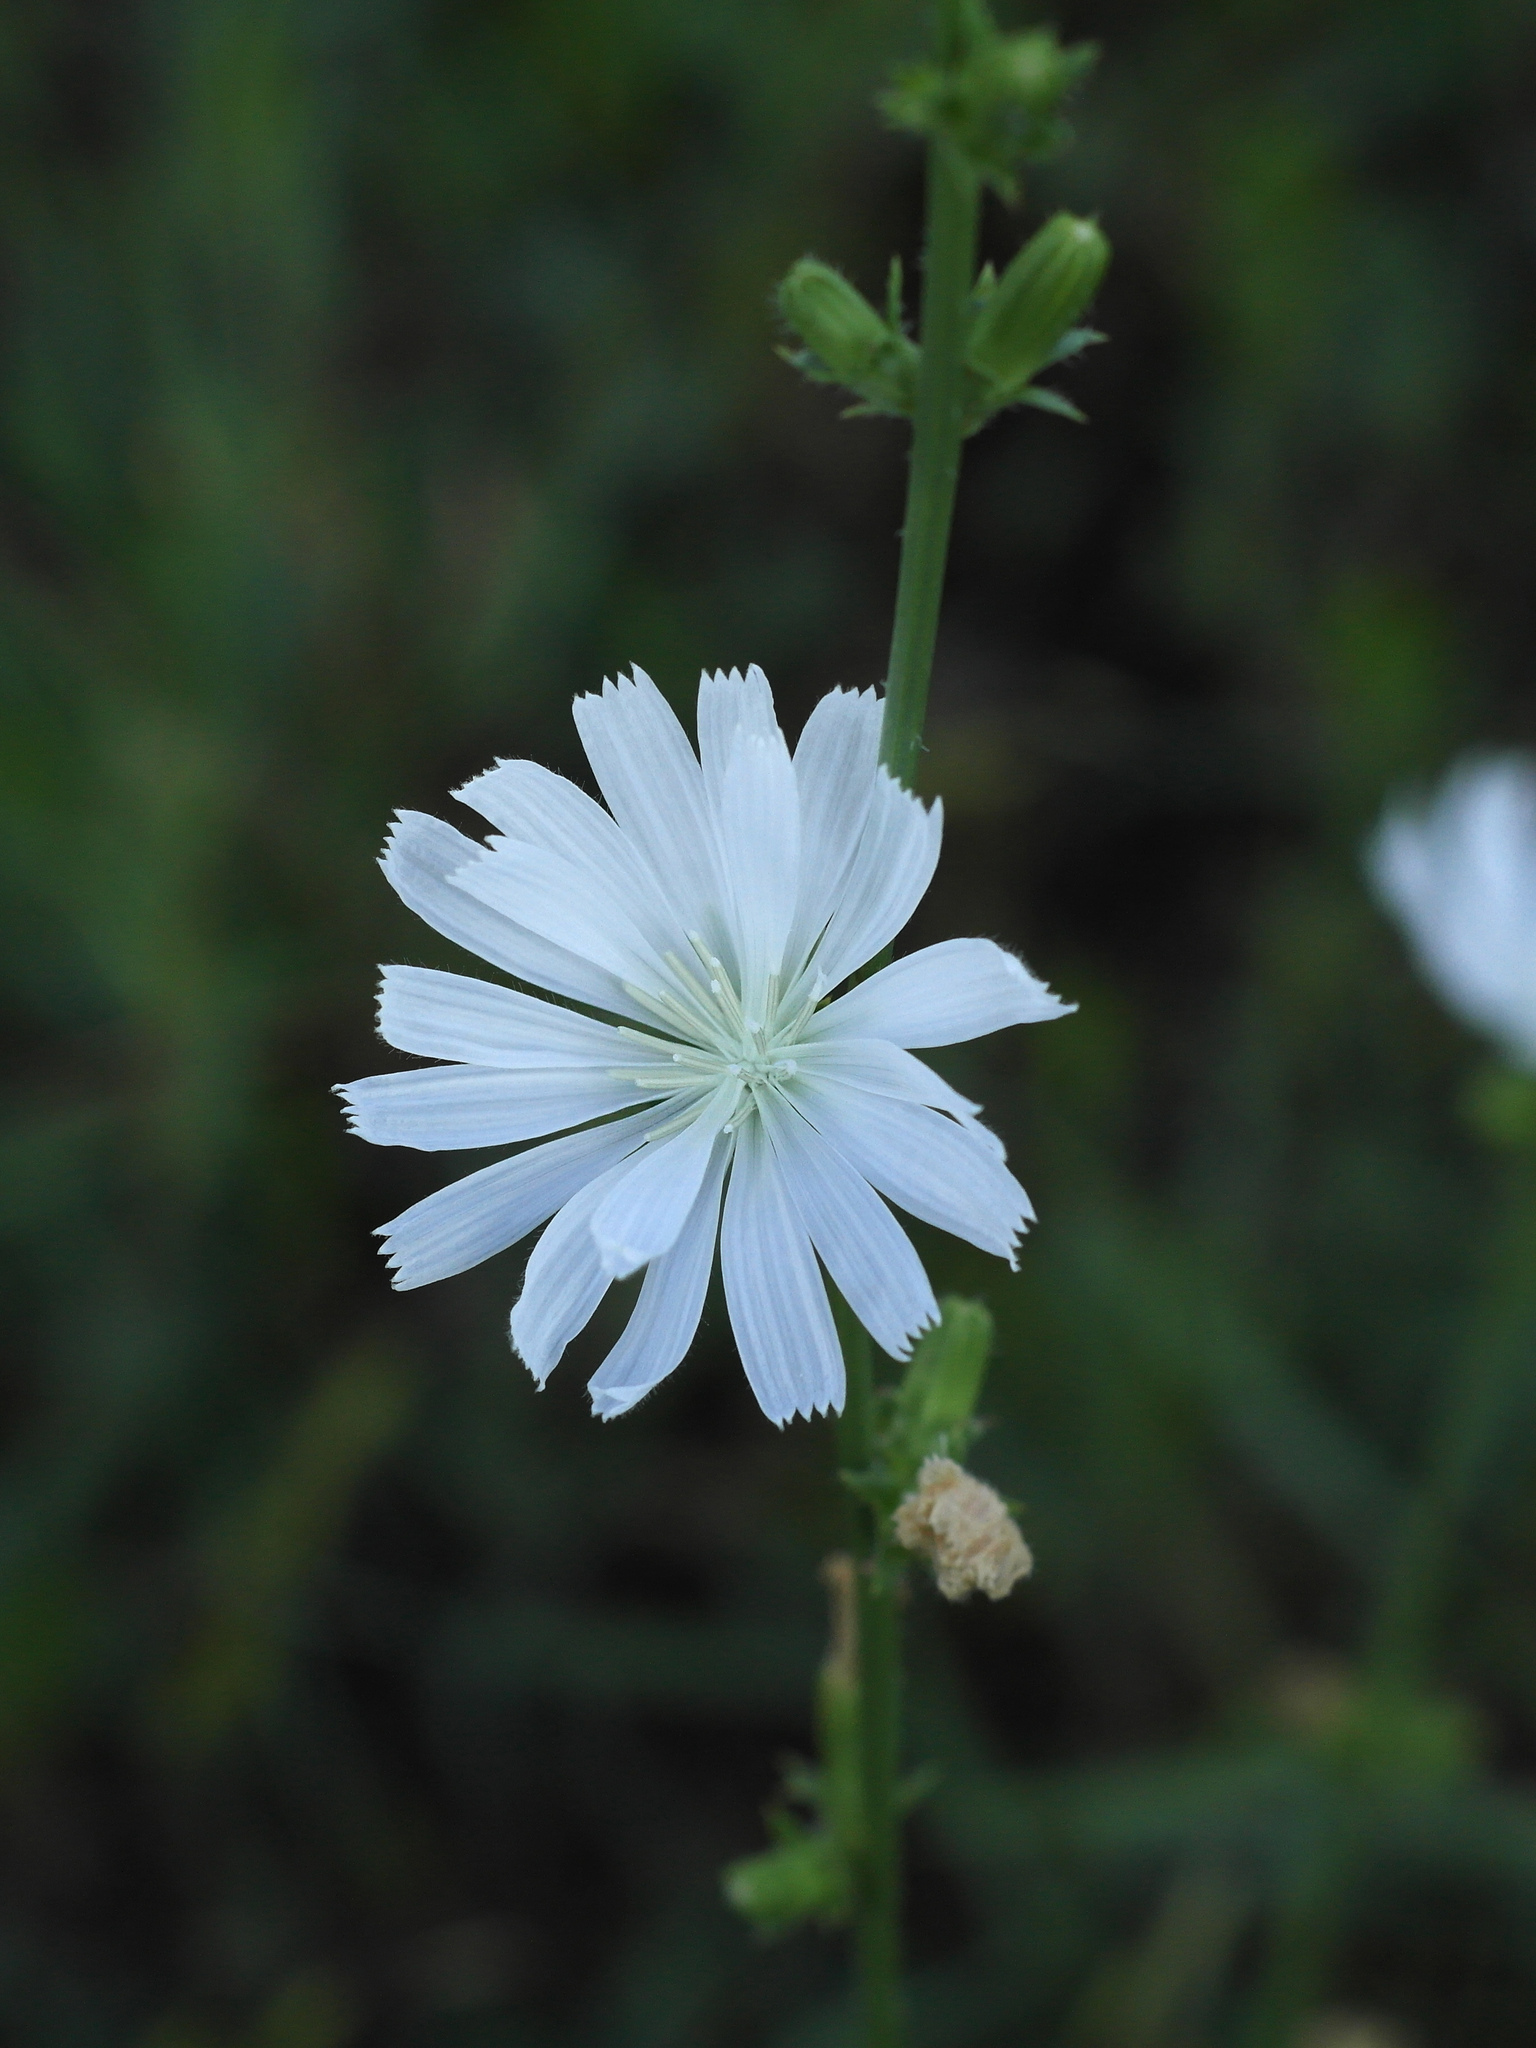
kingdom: Plantae
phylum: Tracheophyta
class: Magnoliopsida
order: Asterales
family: Asteraceae
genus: Cichorium
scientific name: Cichorium intybus
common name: Chicory
